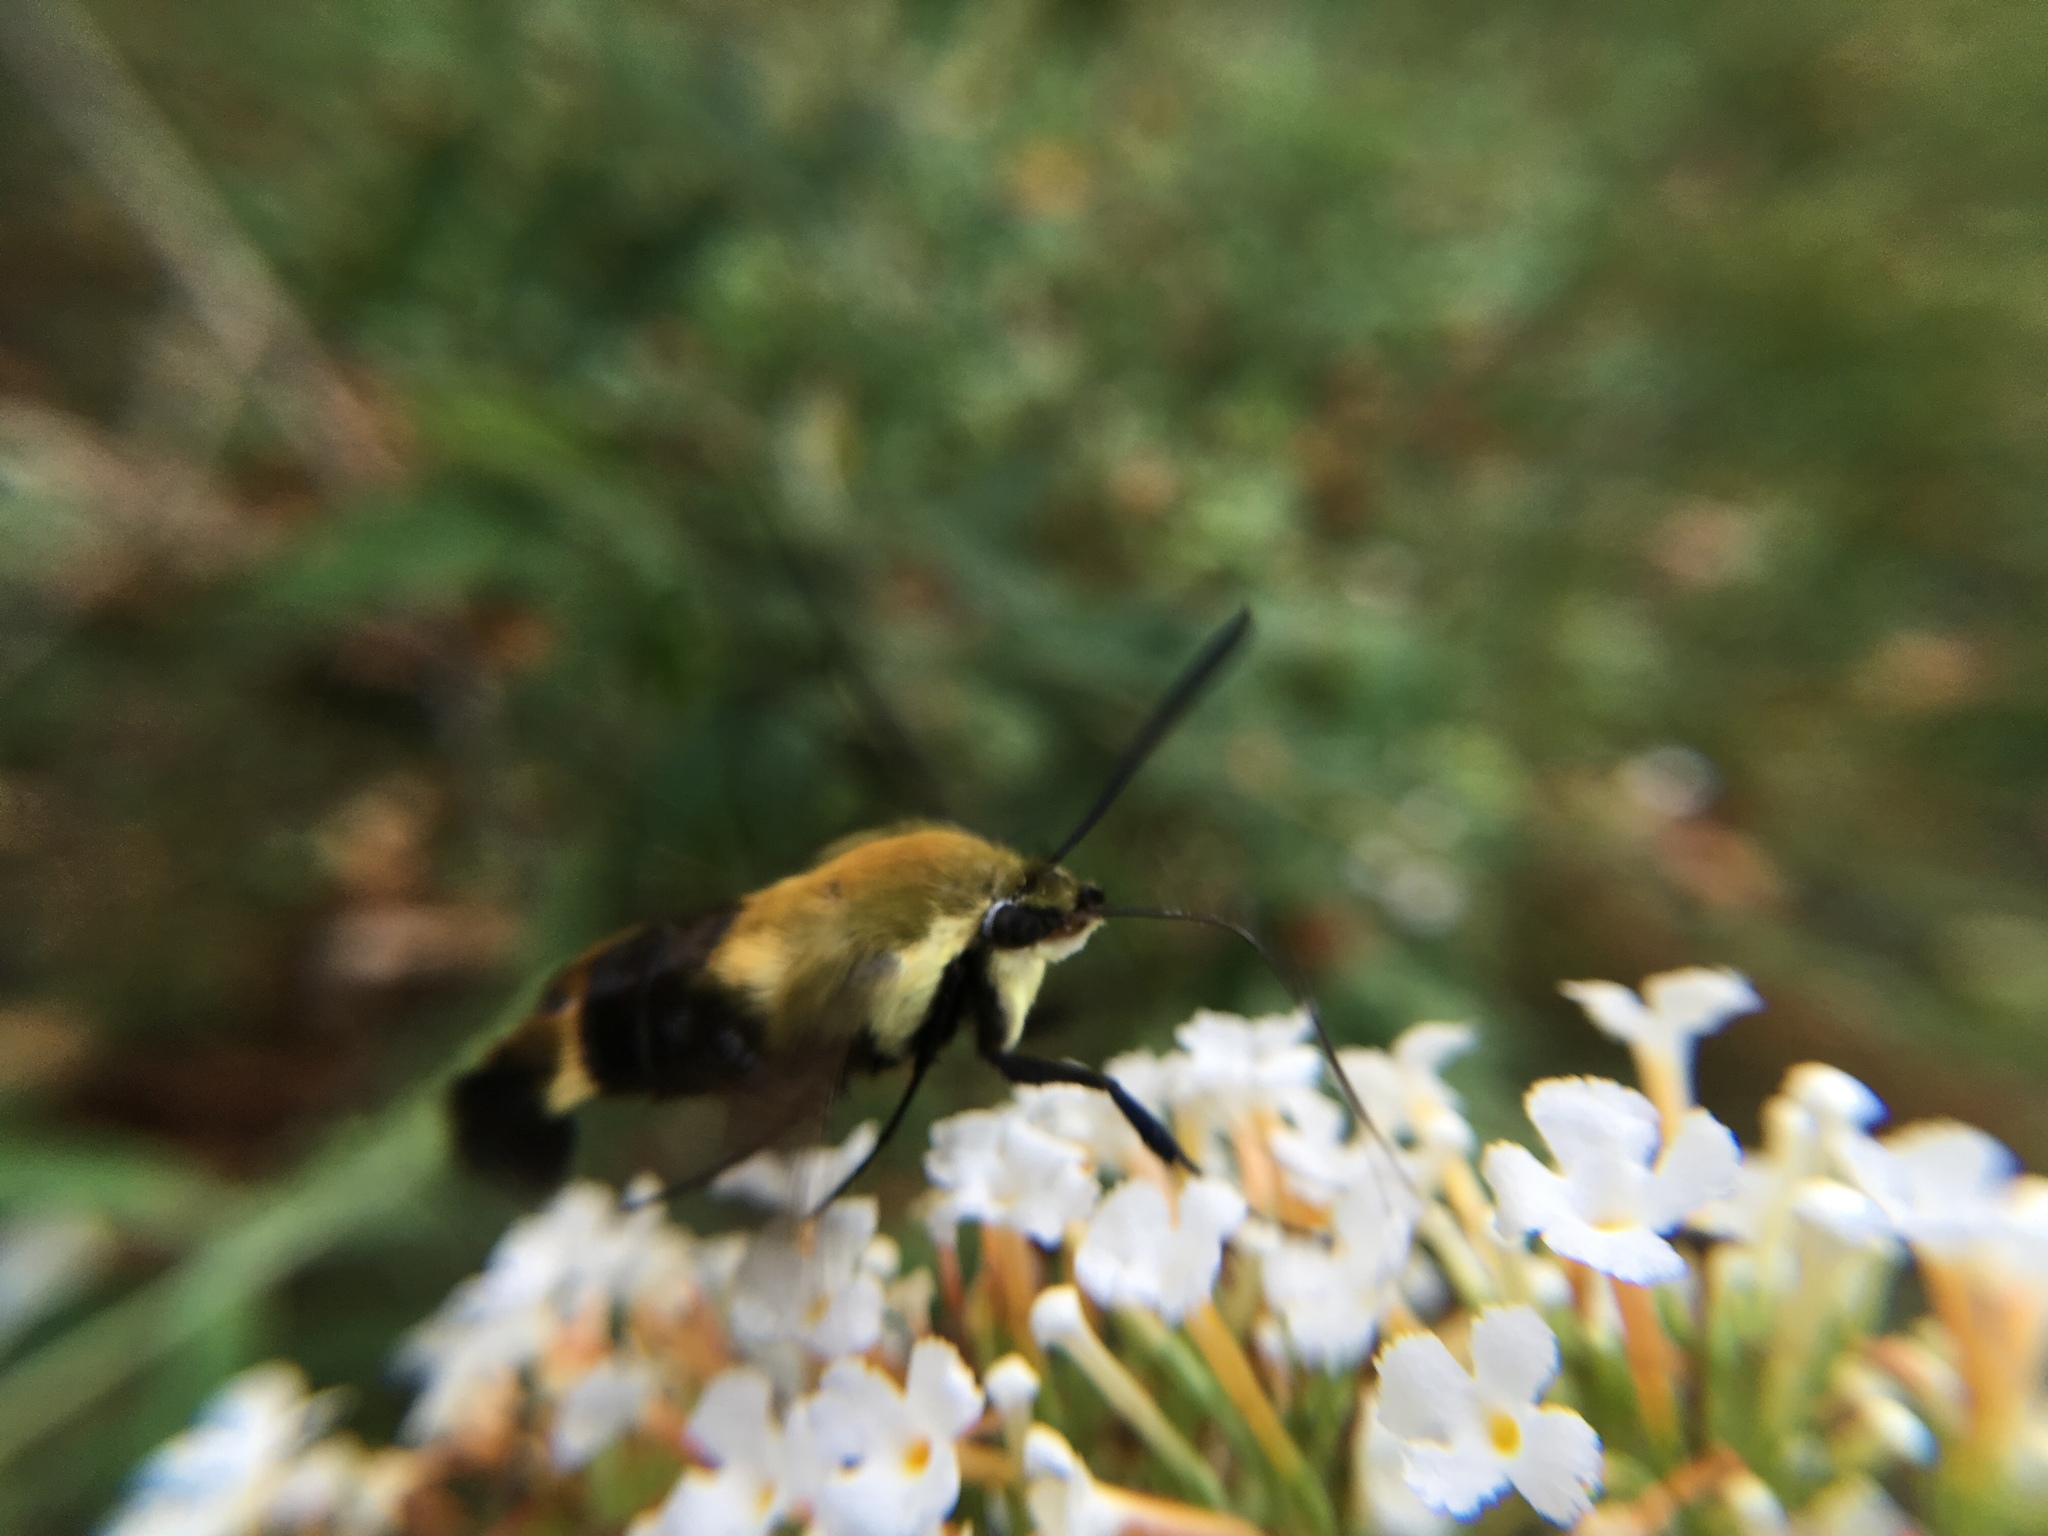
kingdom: Animalia
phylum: Arthropoda
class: Insecta
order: Lepidoptera
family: Sphingidae
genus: Hemaris
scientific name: Hemaris diffinis
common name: Bumblebee moth
